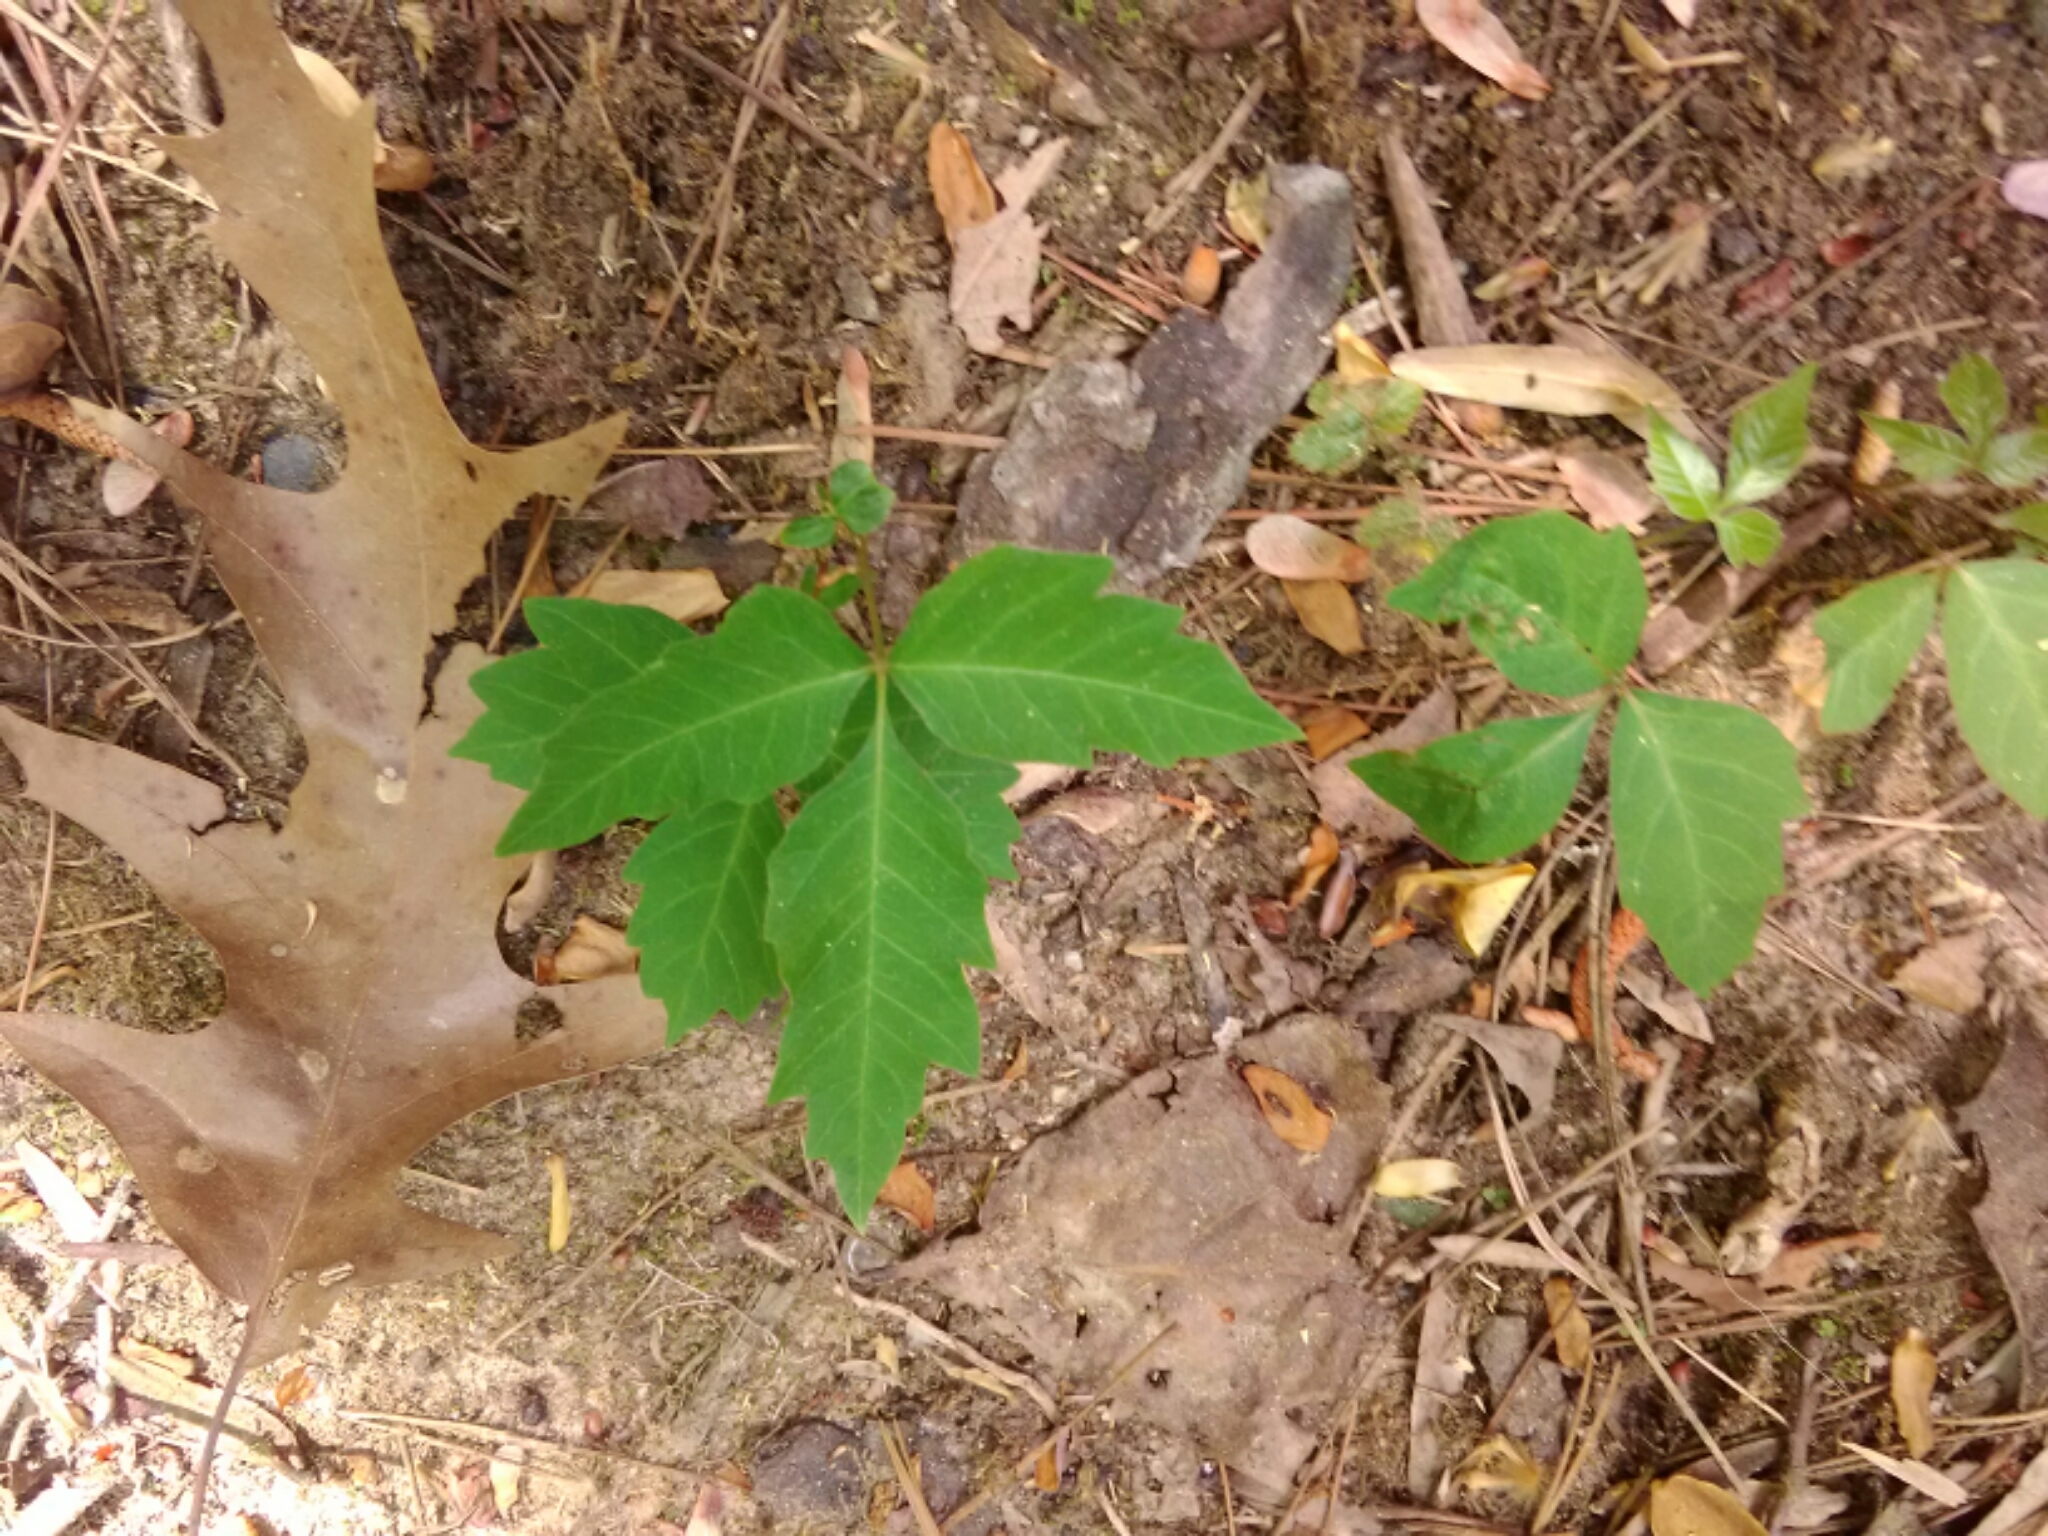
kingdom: Plantae
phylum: Tracheophyta
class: Magnoliopsida
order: Sapindales
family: Anacardiaceae
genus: Toxicodendron
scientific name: Toxicodendron radicans
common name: Poison ivy
